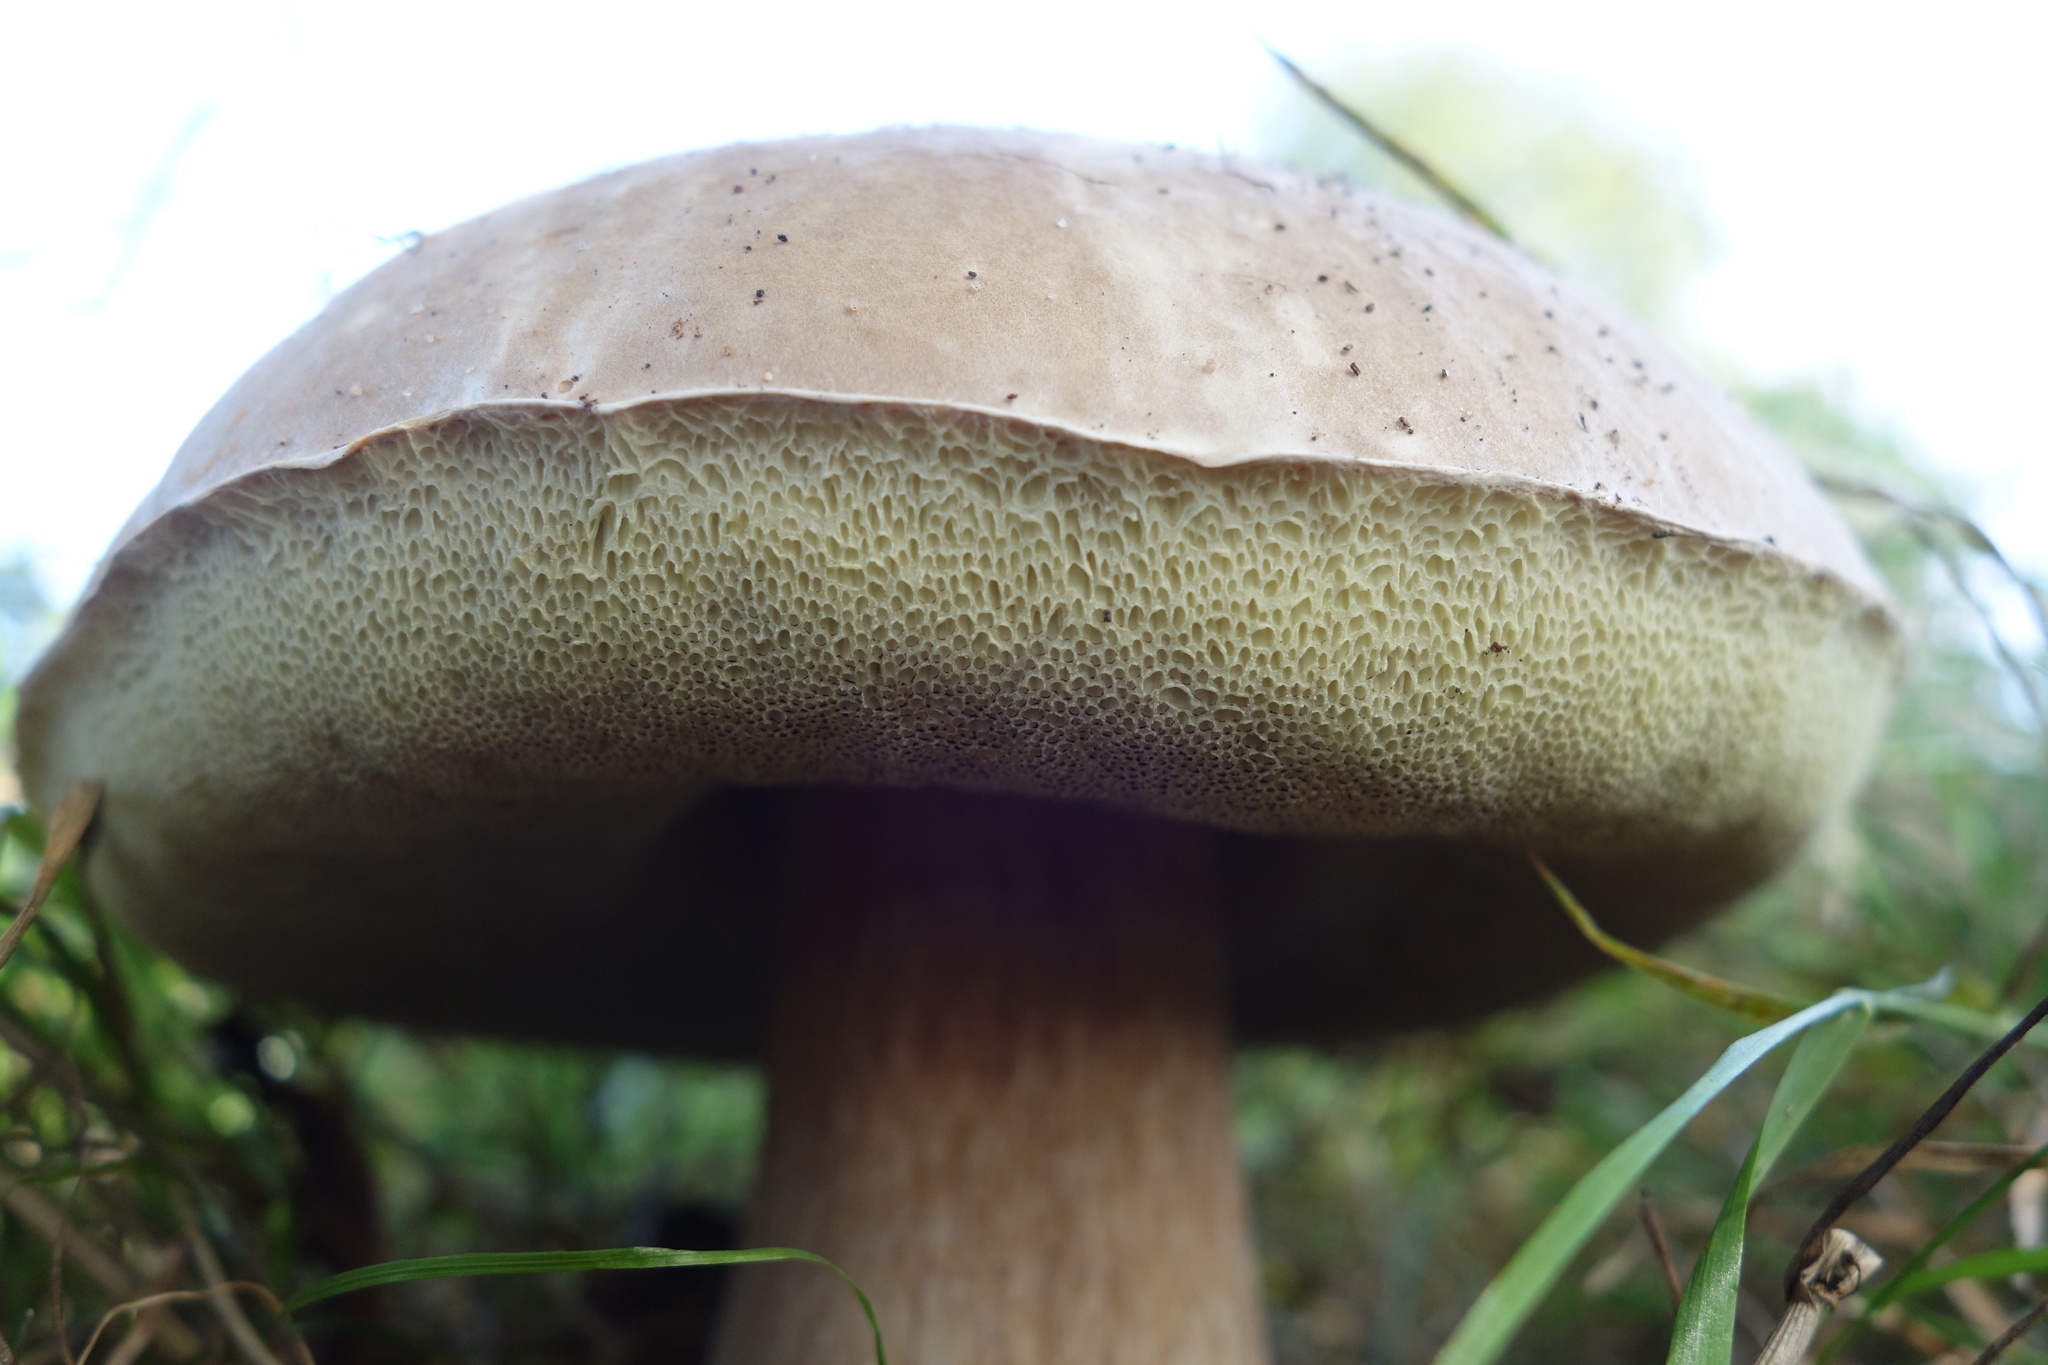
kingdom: Fungi
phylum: Basidiomycota
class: Agaricomycetes
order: Boletales
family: Boletaceae
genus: Boletus
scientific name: Boletus edulis
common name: Cep
